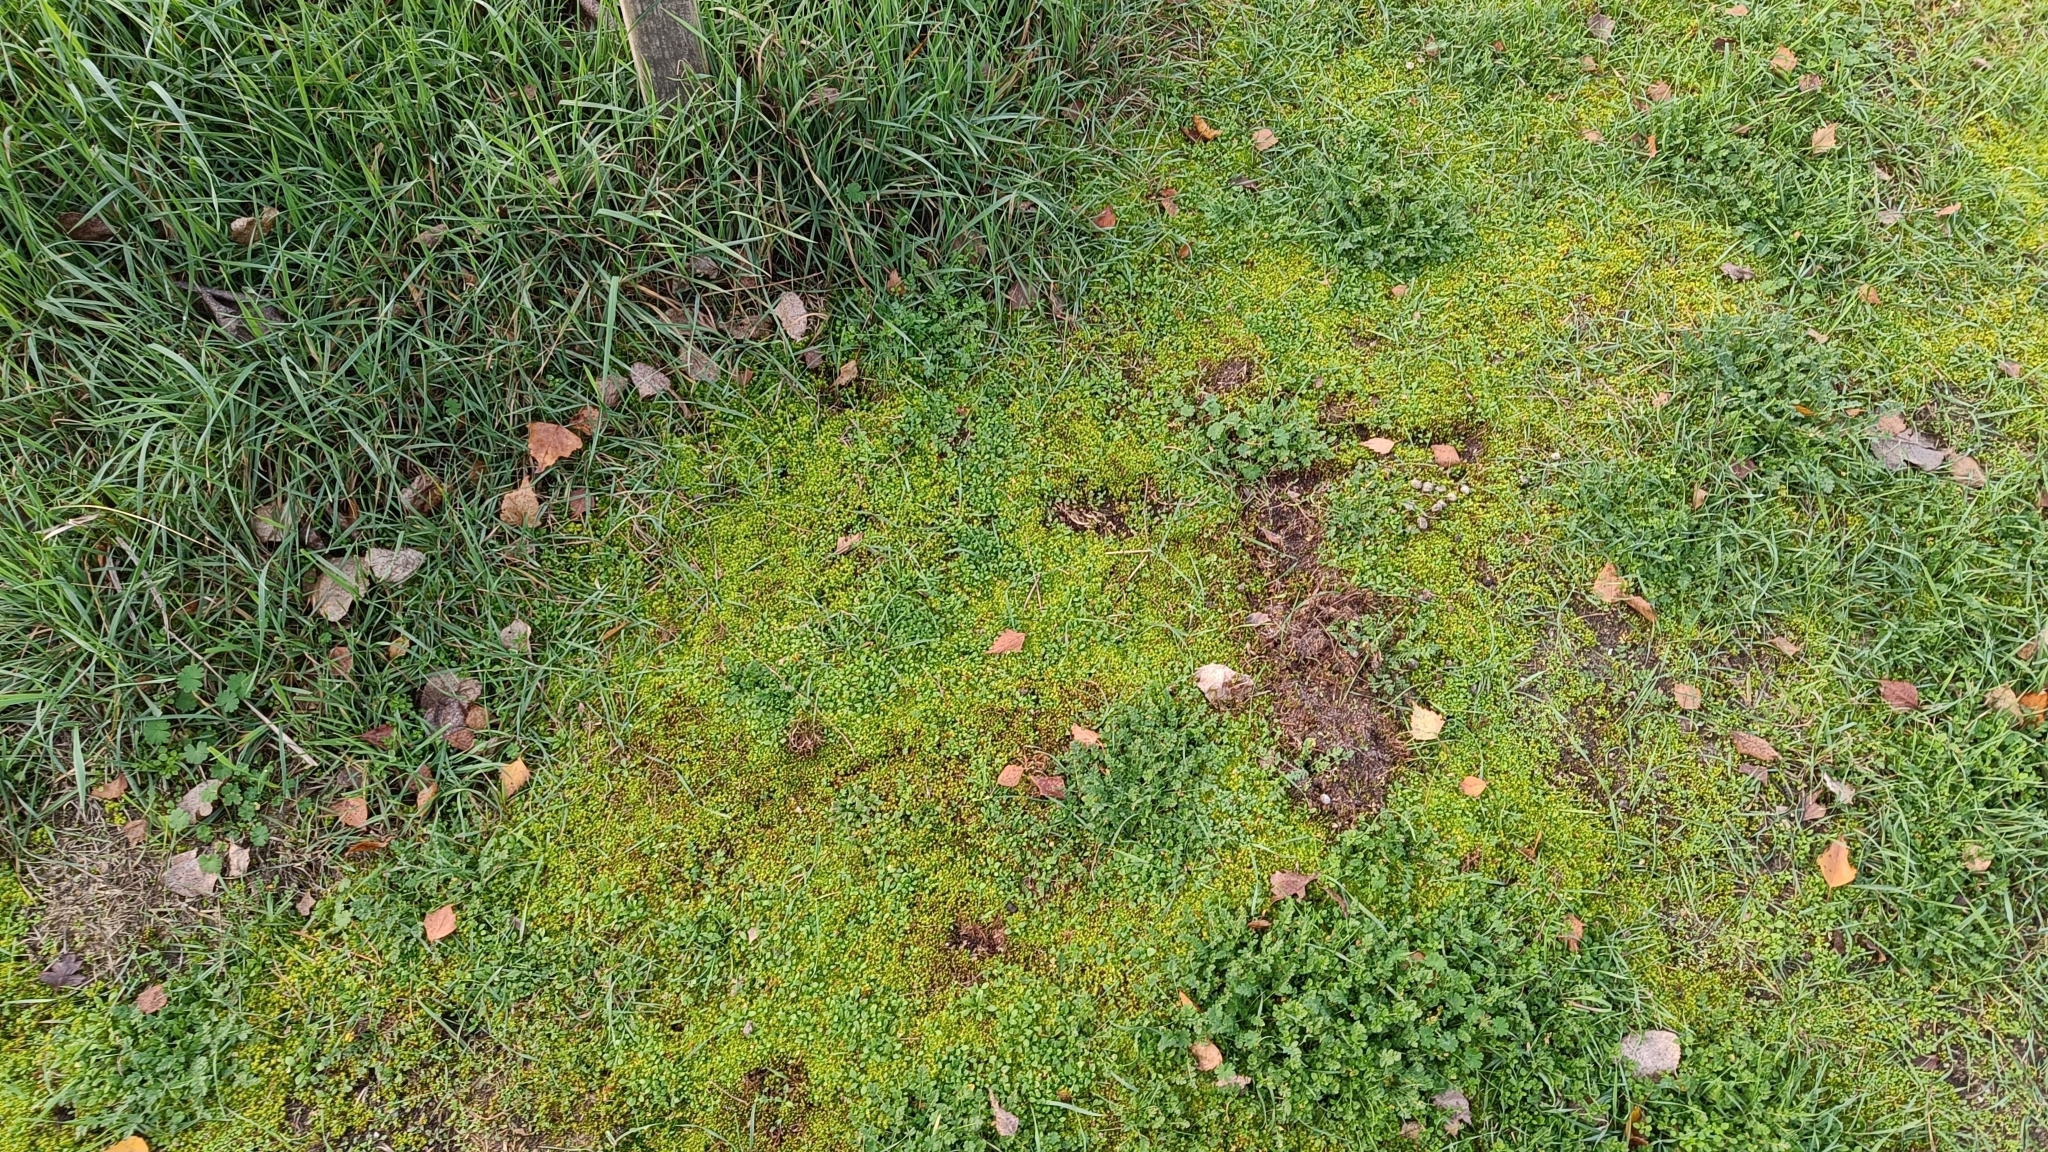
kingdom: Plantae
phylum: Bryophyta
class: Bryopsida
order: Pottiales
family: Pottiaceae
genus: Syntrichia
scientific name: Syntrichia ruralis
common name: Sidewalk screw moss
